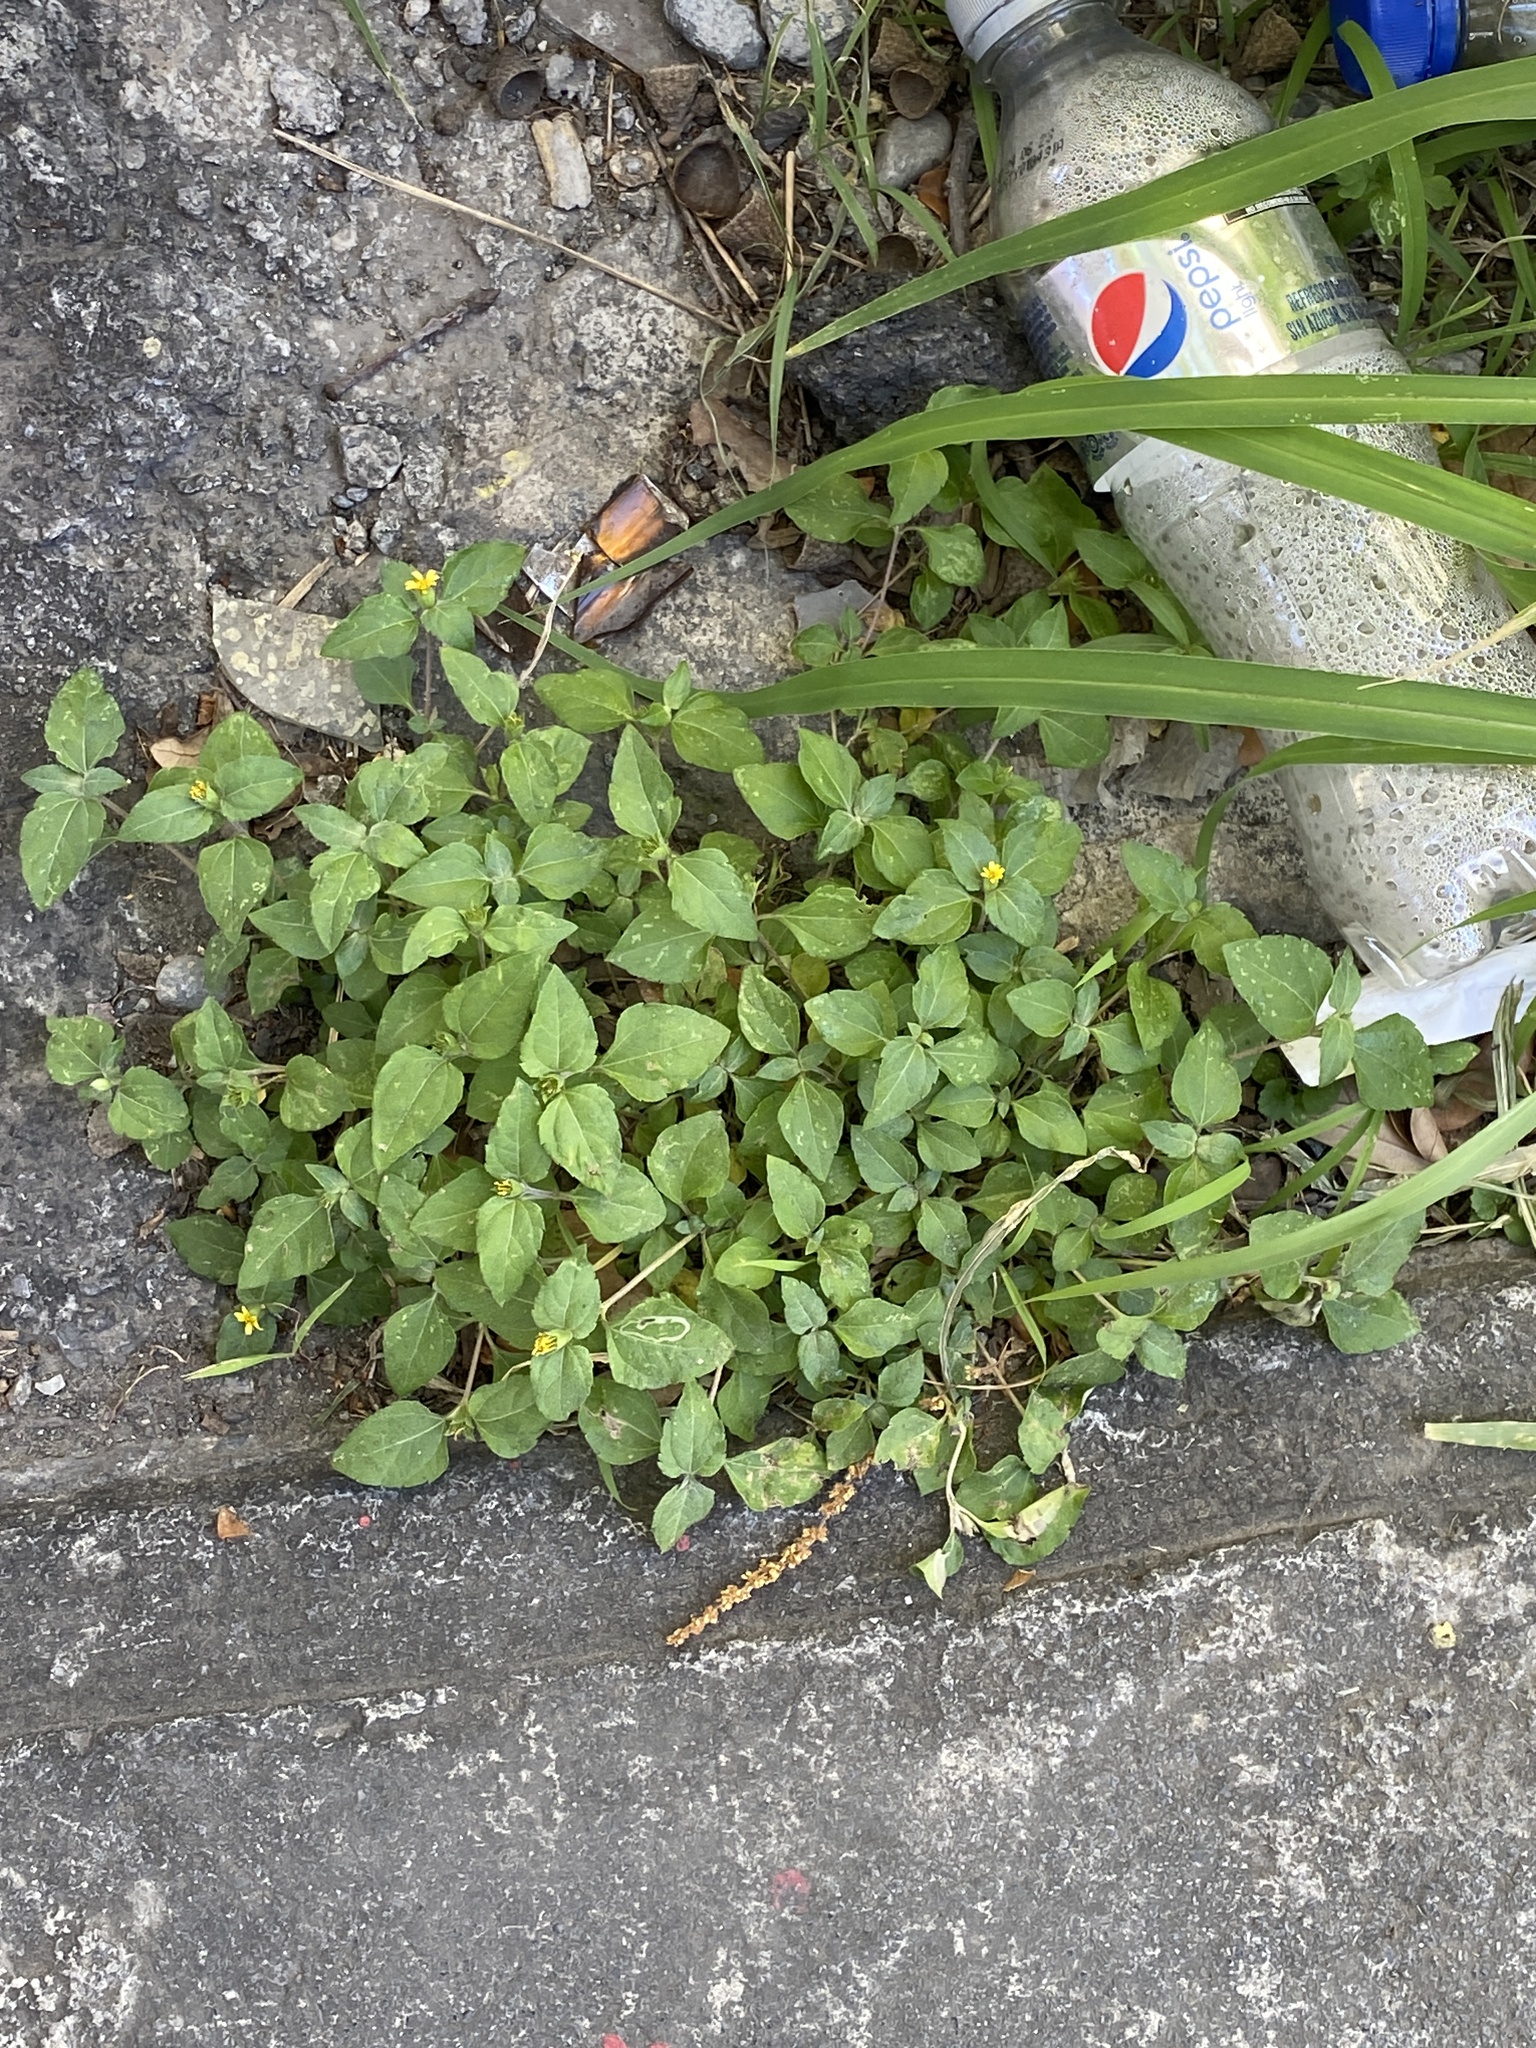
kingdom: Plantae
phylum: Tracheophyta
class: Magnoliopsida
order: Asterales
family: Asteraceae
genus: Calyptocarpus
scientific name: Calyptocarpus vialis
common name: Straggler daisy
